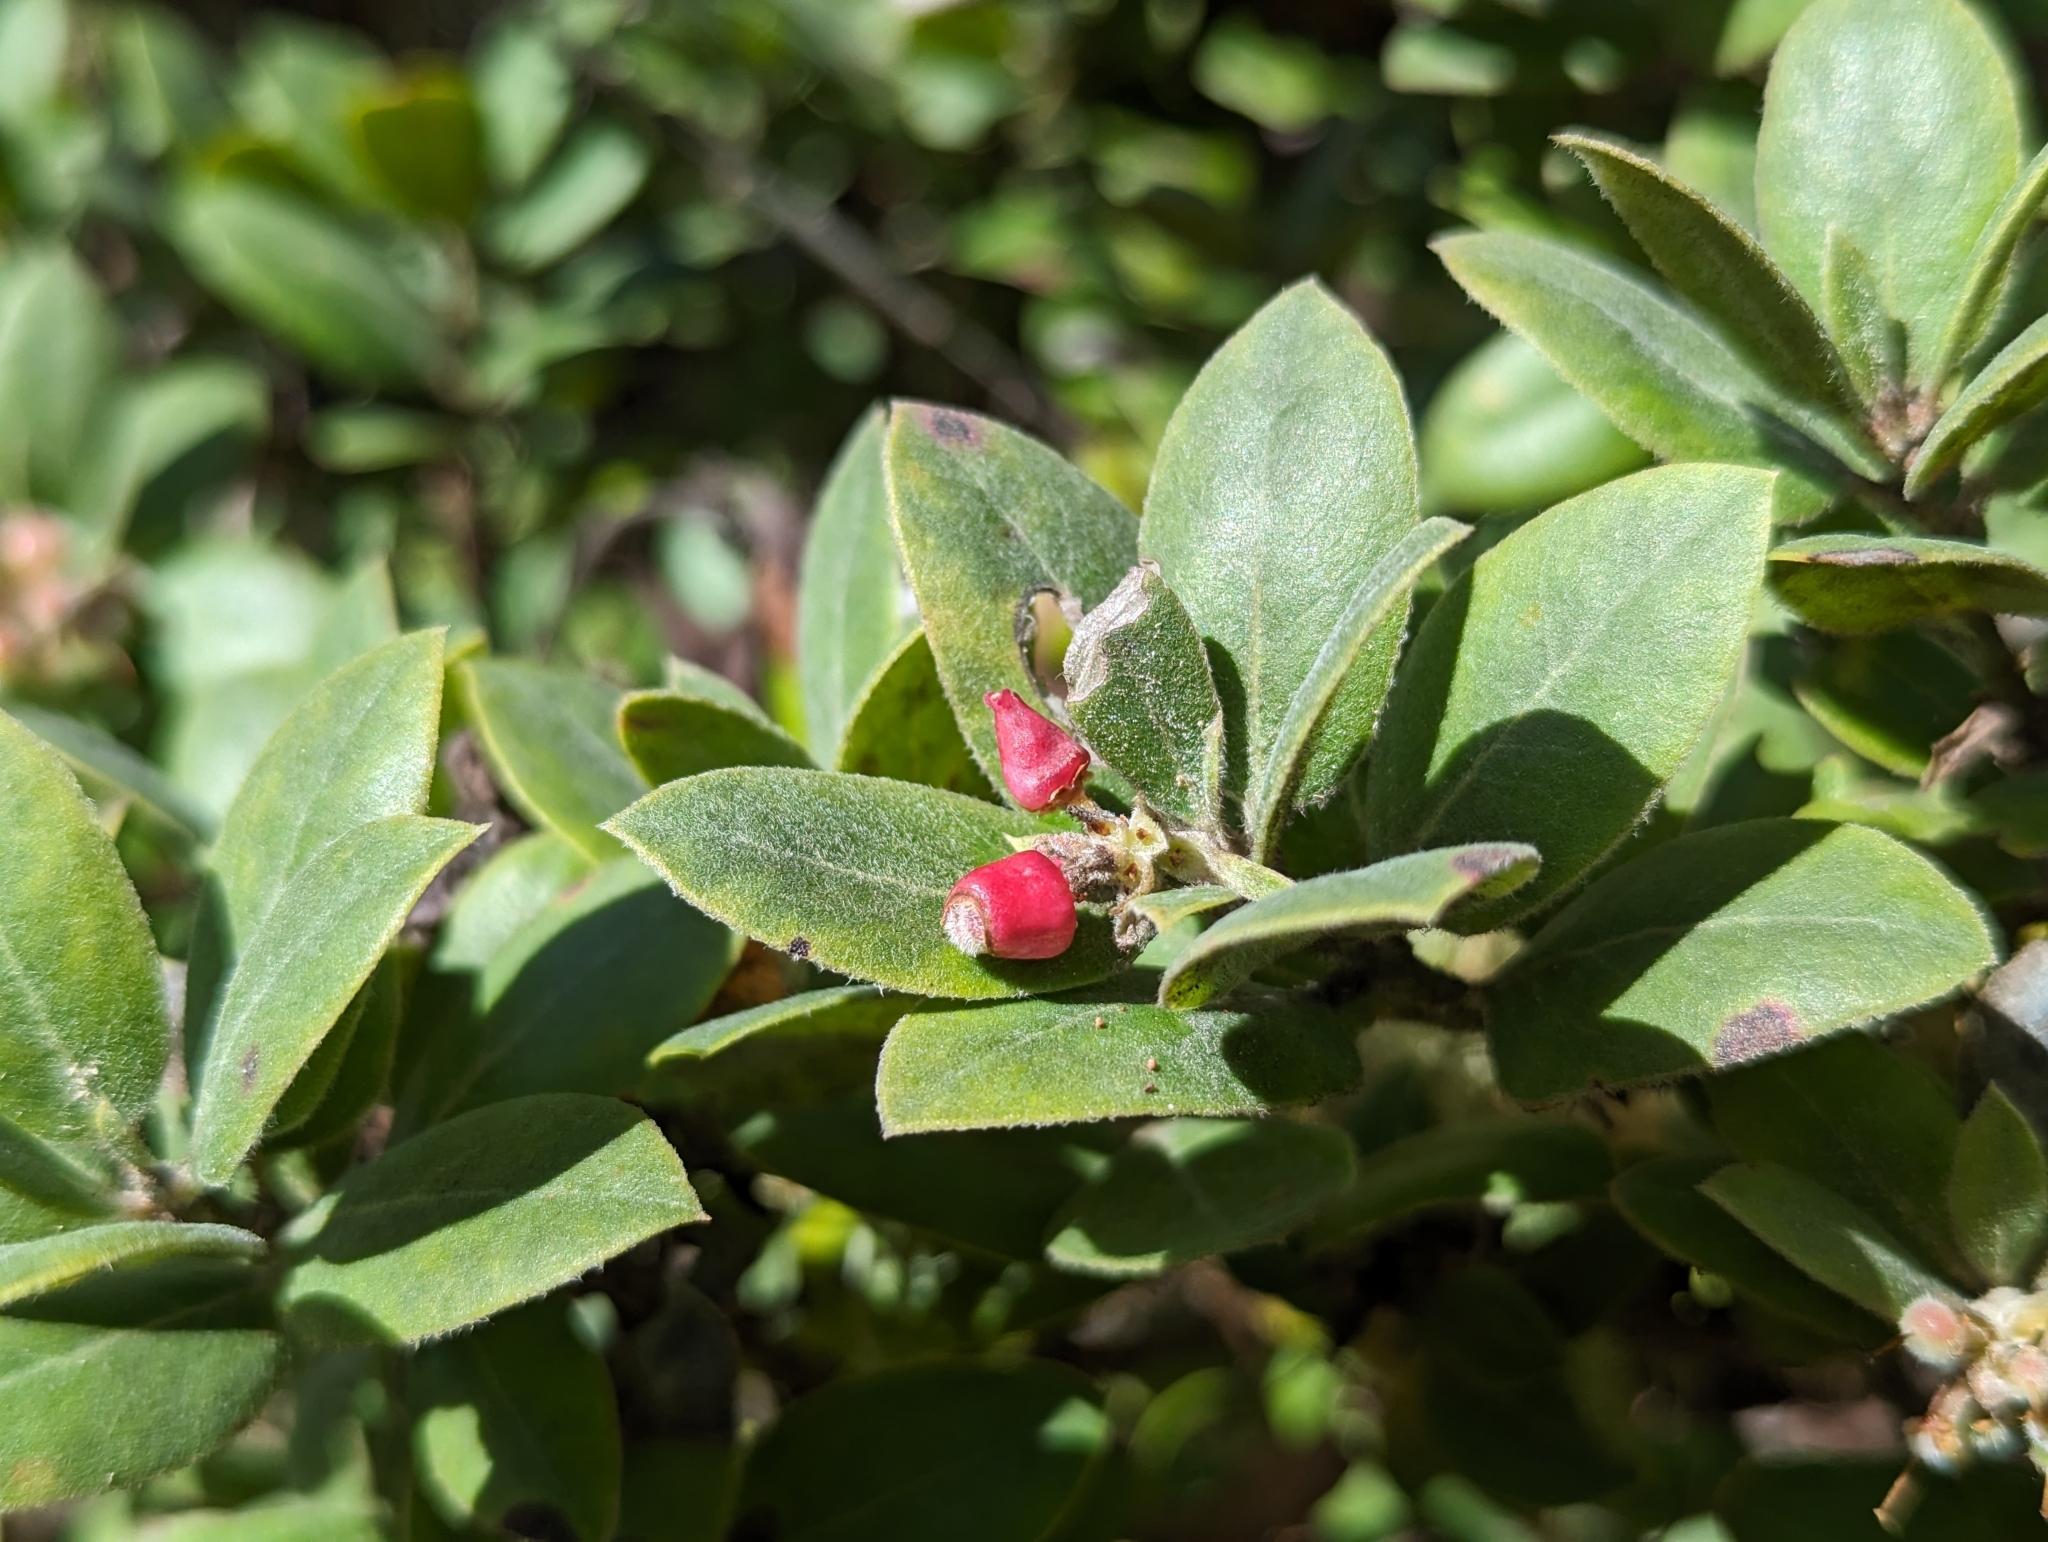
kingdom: Plantae
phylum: Tracheophyta
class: Magnoliopsida
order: Ericales
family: Ericaceae
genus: Arctostaphylos
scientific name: Arctostaphylos tomentosa
